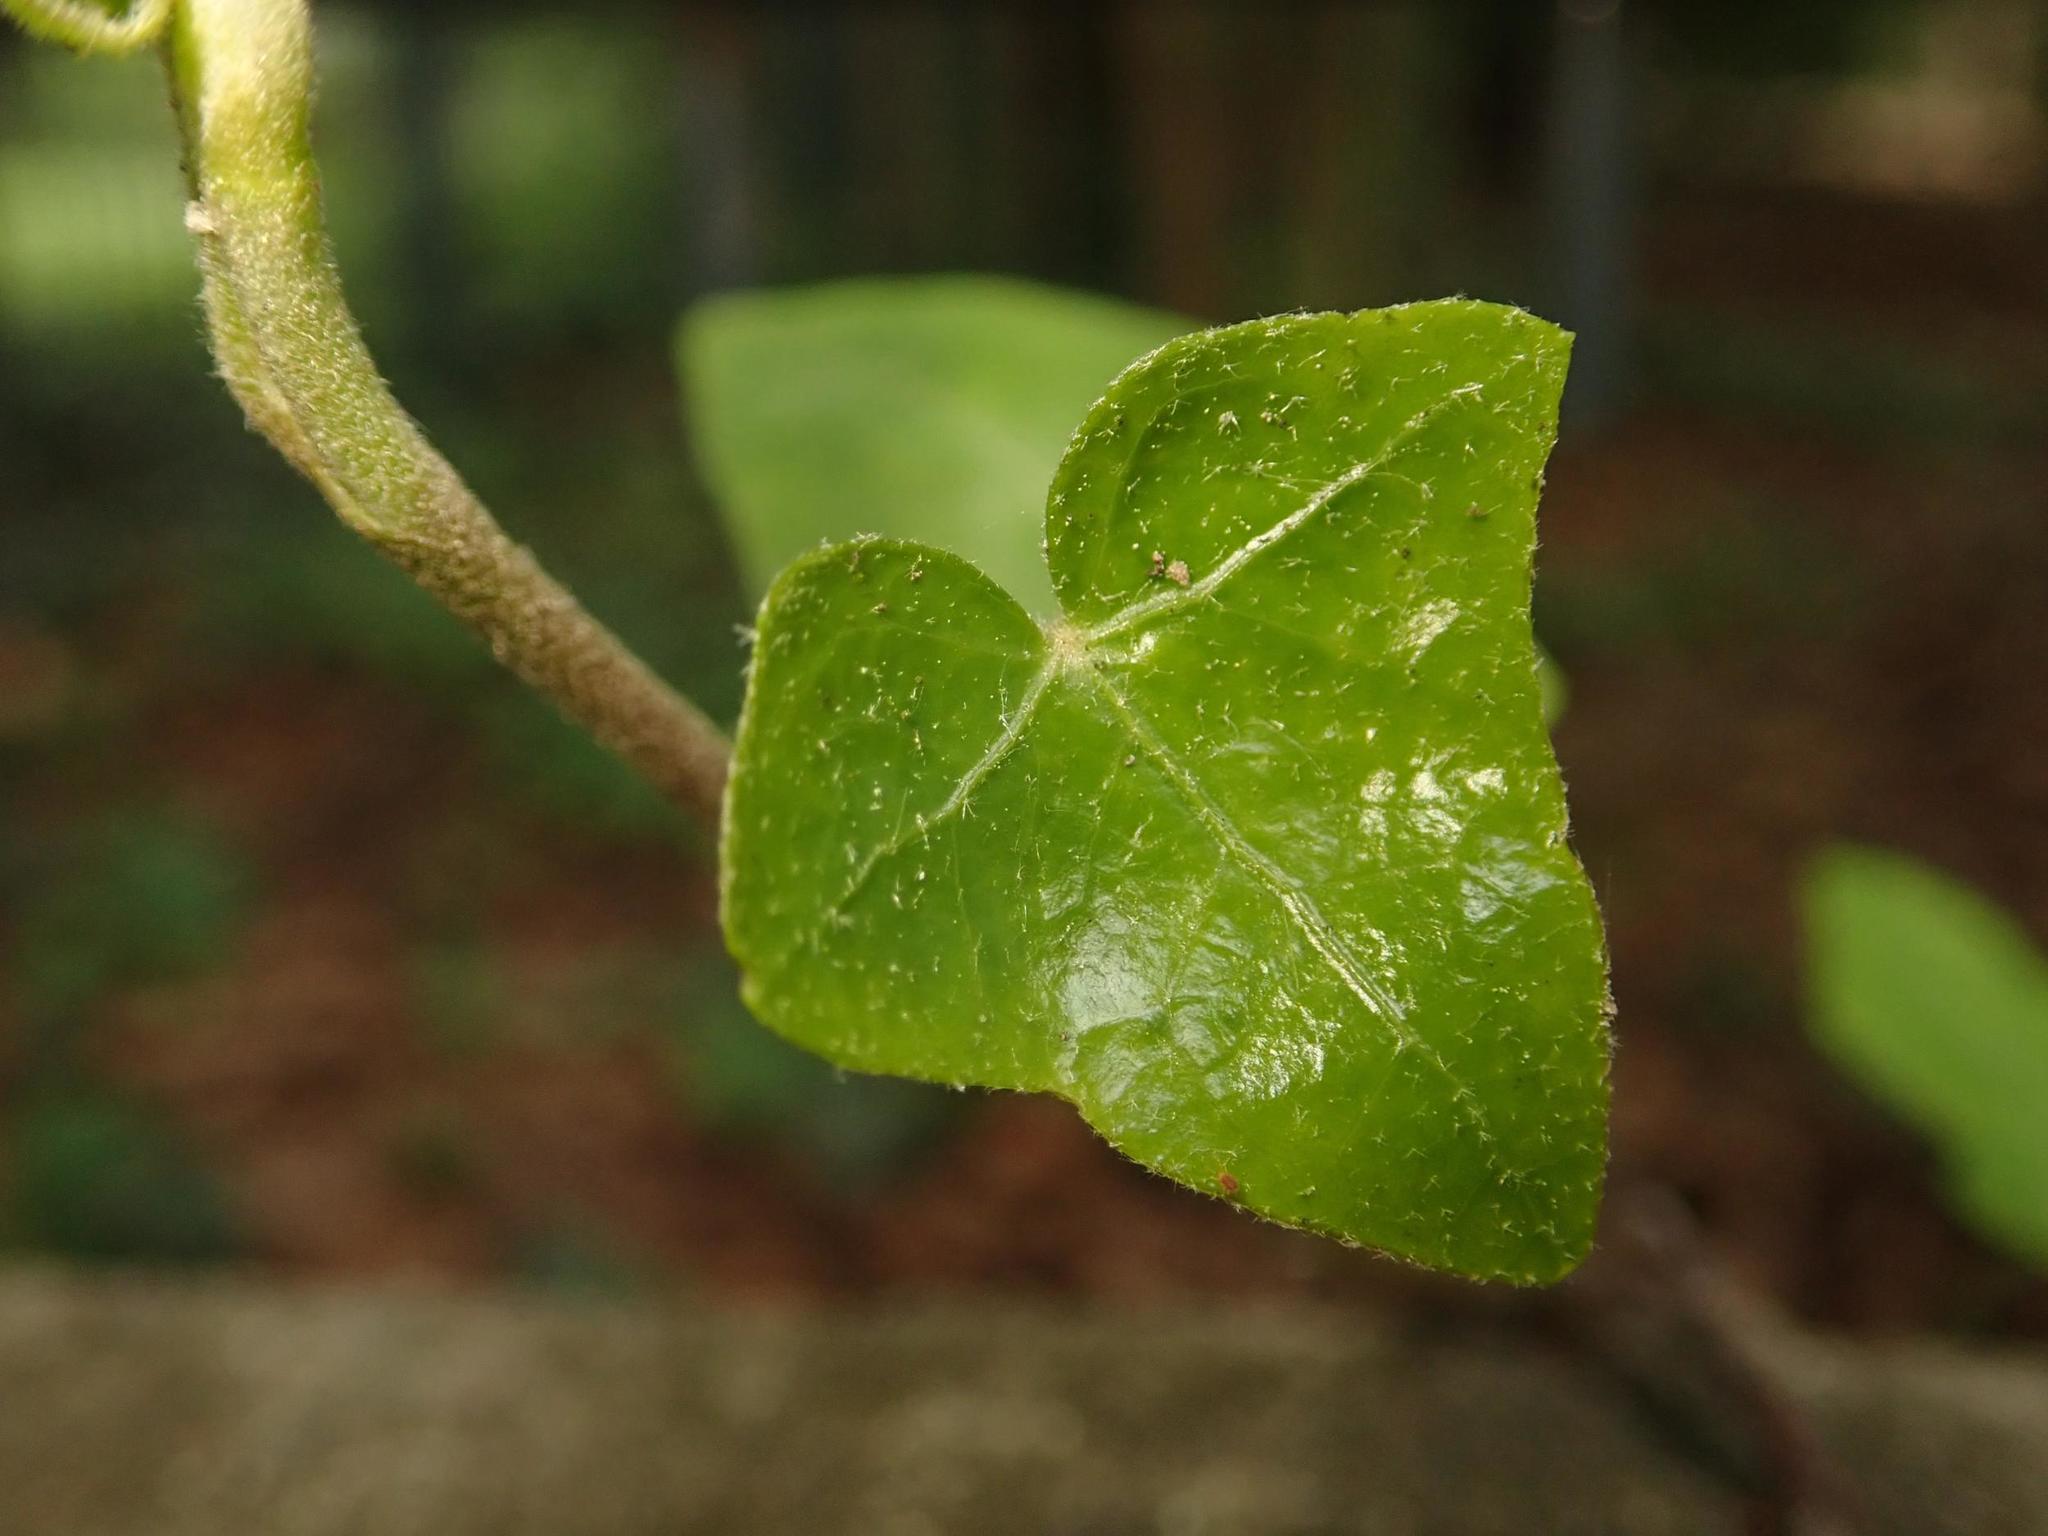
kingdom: Plantae
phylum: Tracheophyta
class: Magnoliopsida
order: Apiales
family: Araliaceae
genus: Hedera
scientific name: Hedera helix
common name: Ivy
